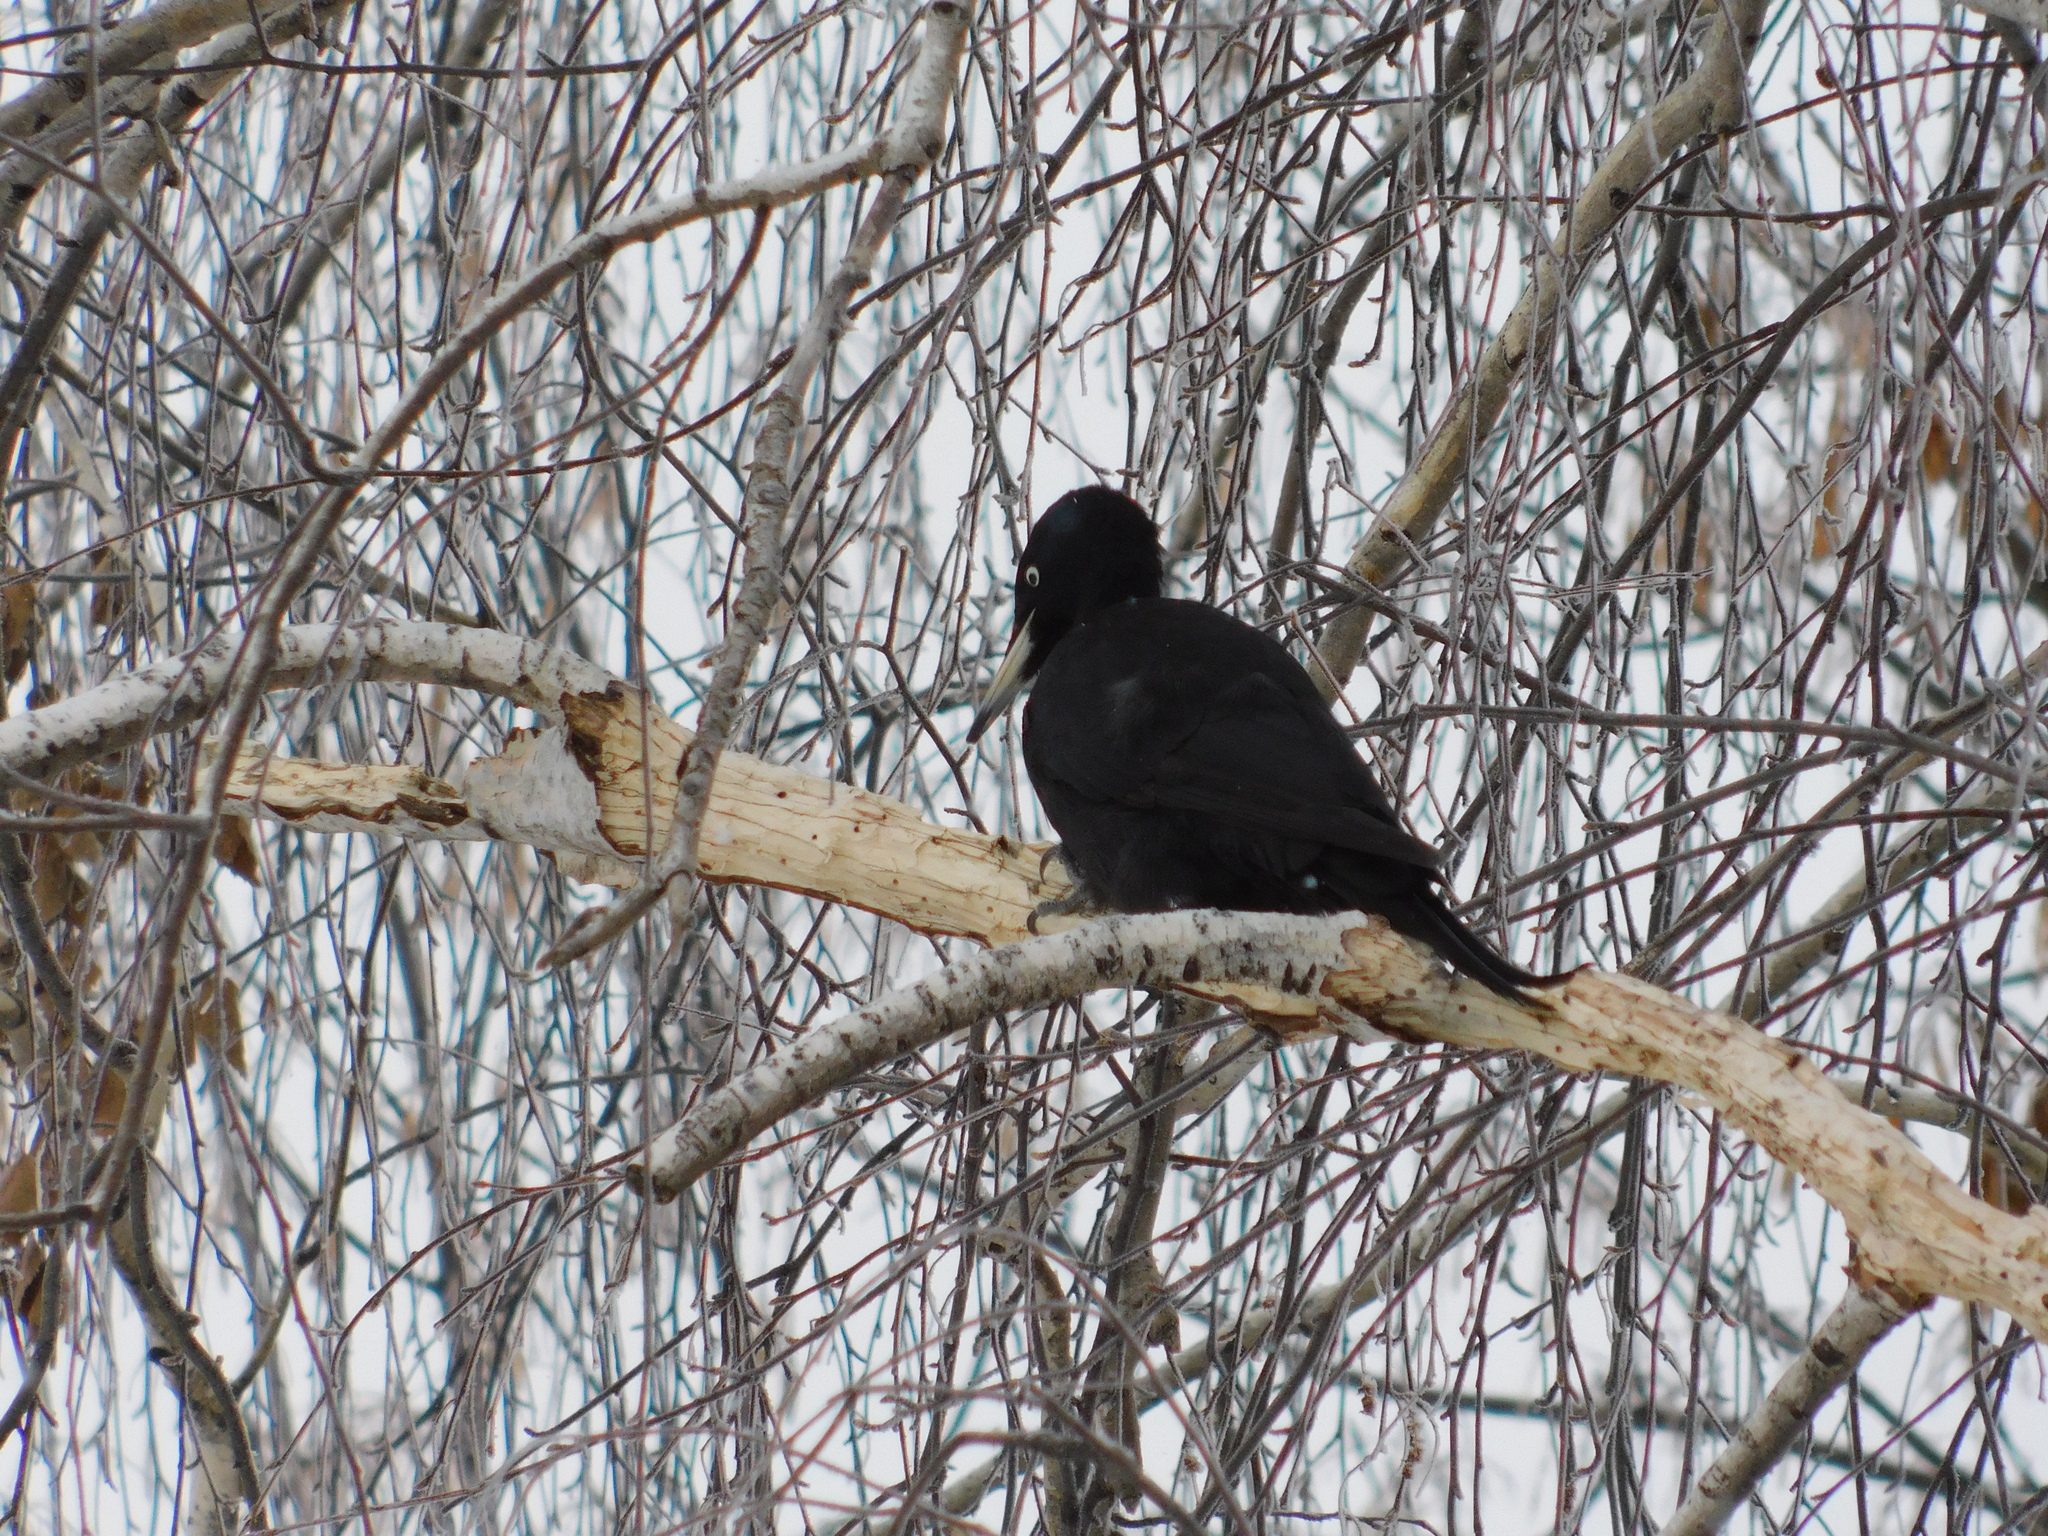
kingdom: Animalia
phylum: Chordata
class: Aves
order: Piciformes
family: Picidae
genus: Dryocopus
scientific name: Dryocopus martius
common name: Black woodpecker
